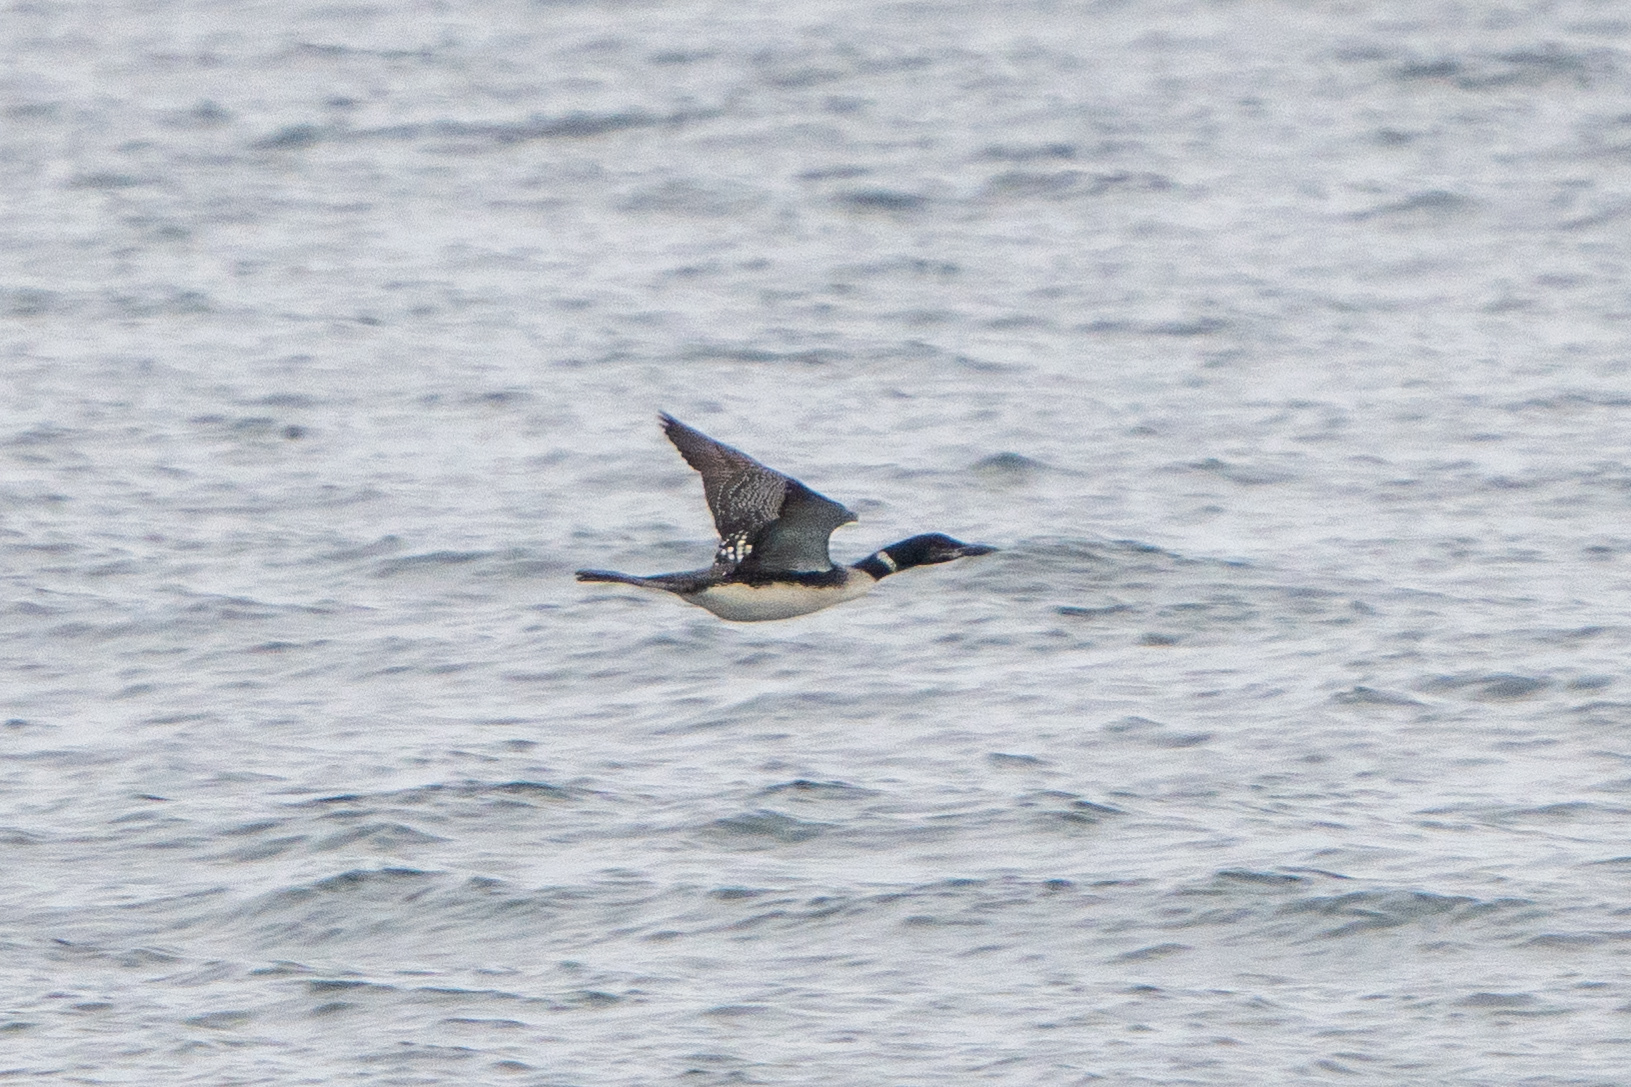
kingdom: Animalia
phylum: Chordata
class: Aves
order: Gaviiformes
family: Gaviidae
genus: Gavia
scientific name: Gavia immer
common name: Common loon
